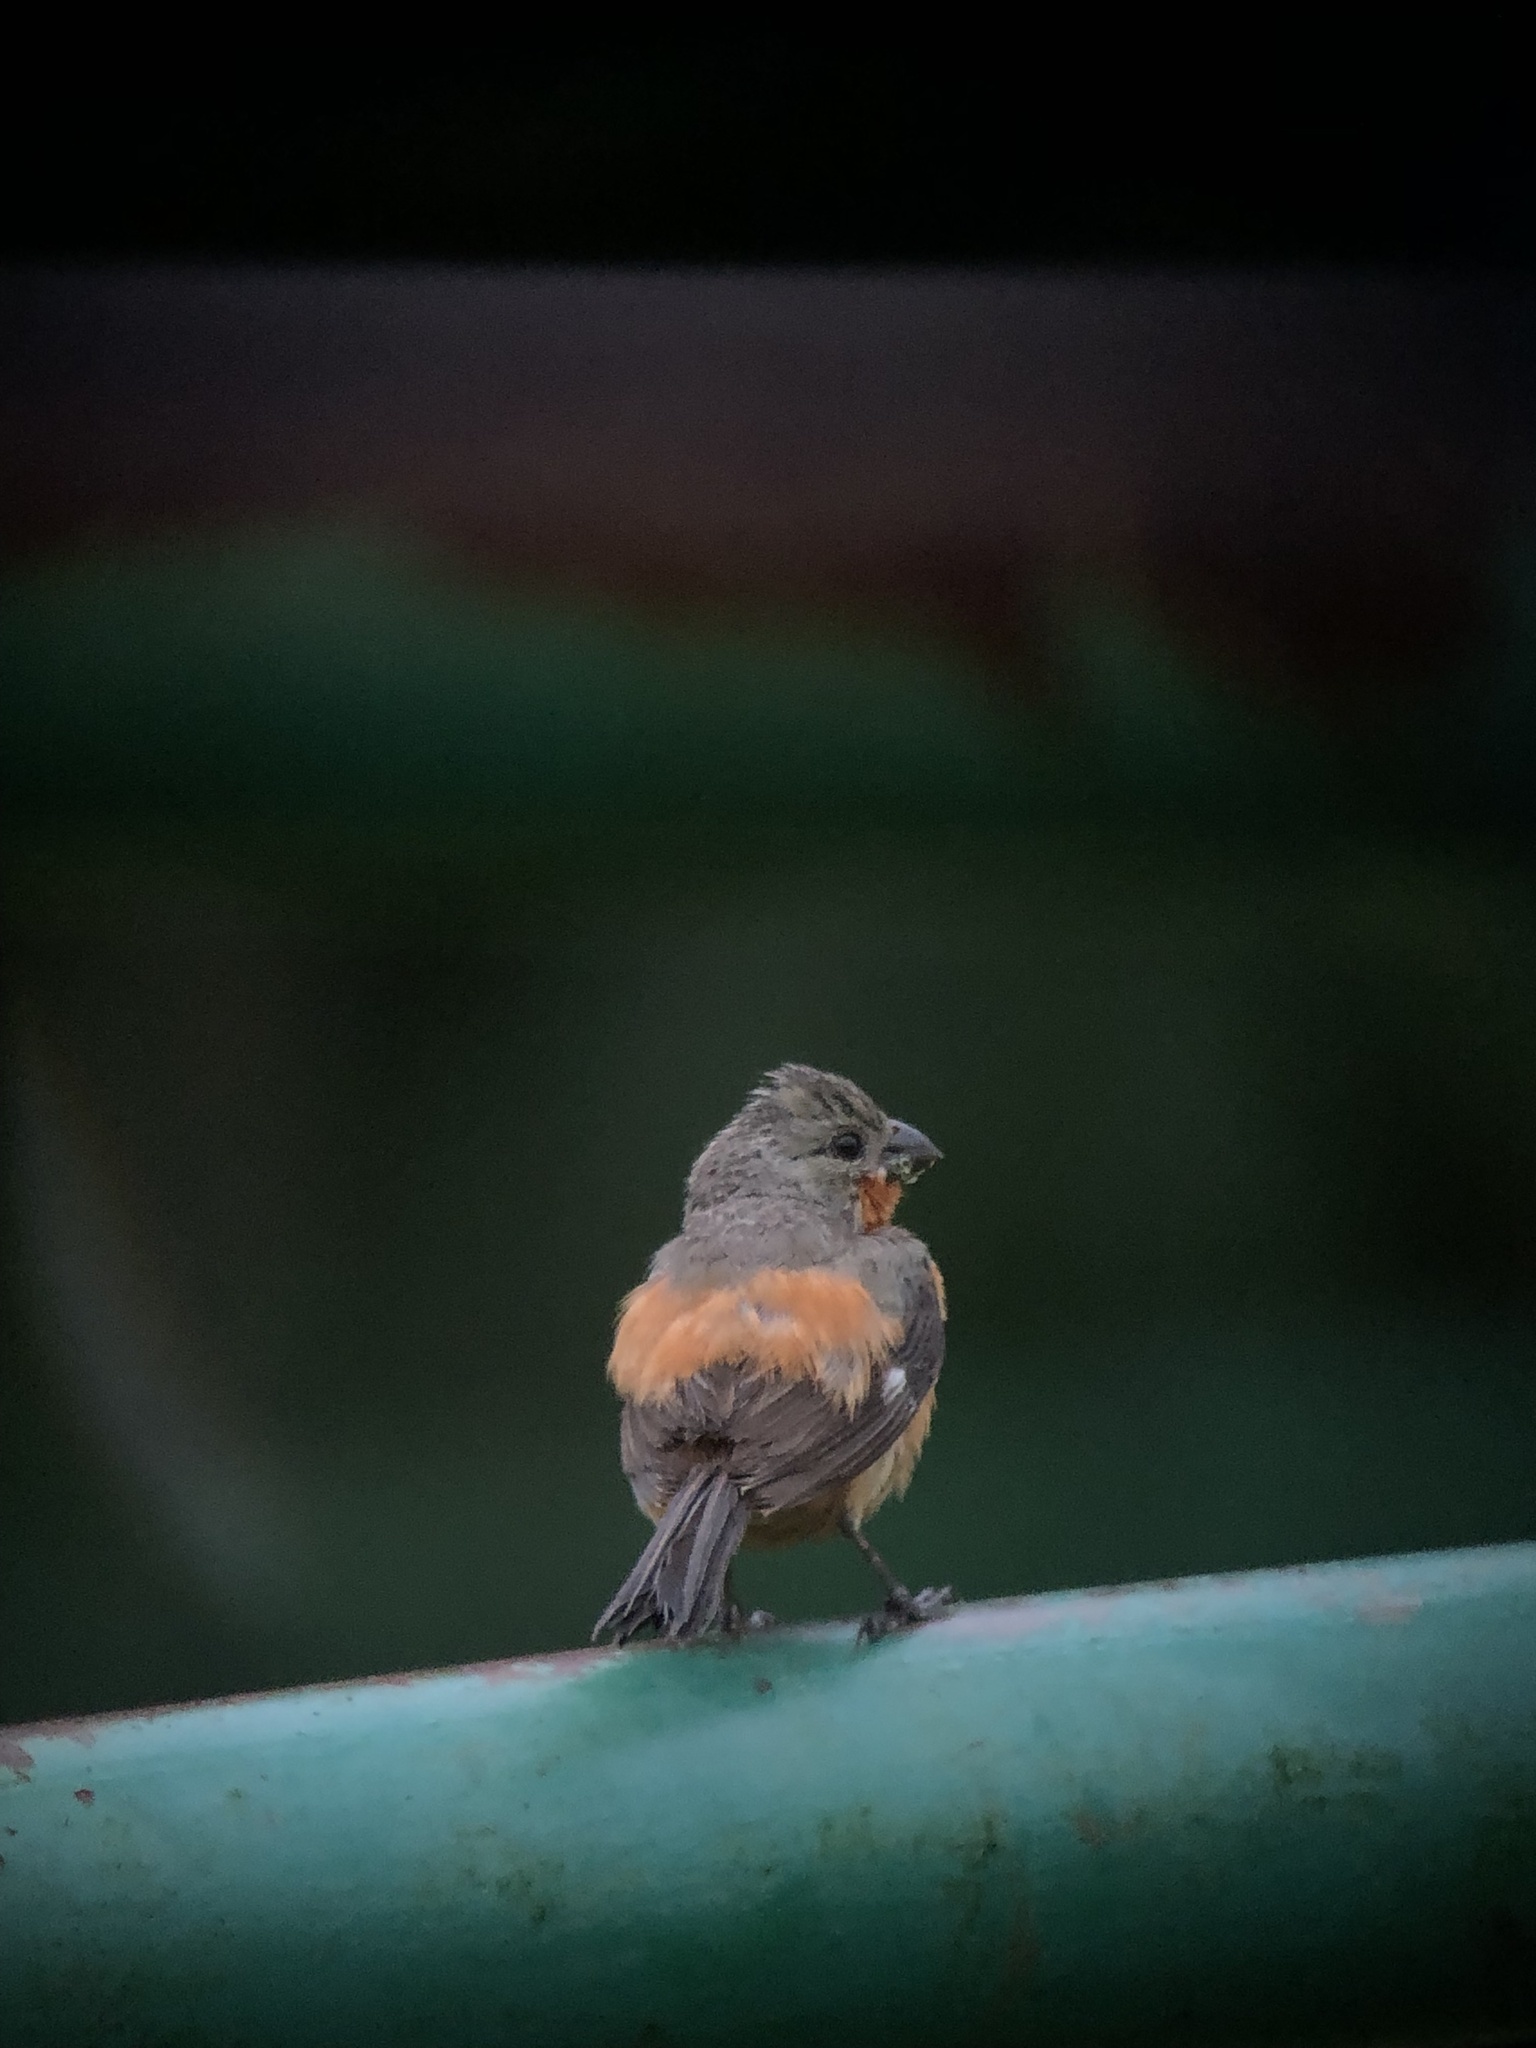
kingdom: Animalia
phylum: Chordata
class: Aves
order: Passeriformes
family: Thraupidae
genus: Sporophila
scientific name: Sporophila minuta
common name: Ruddy-breasted seedeater
